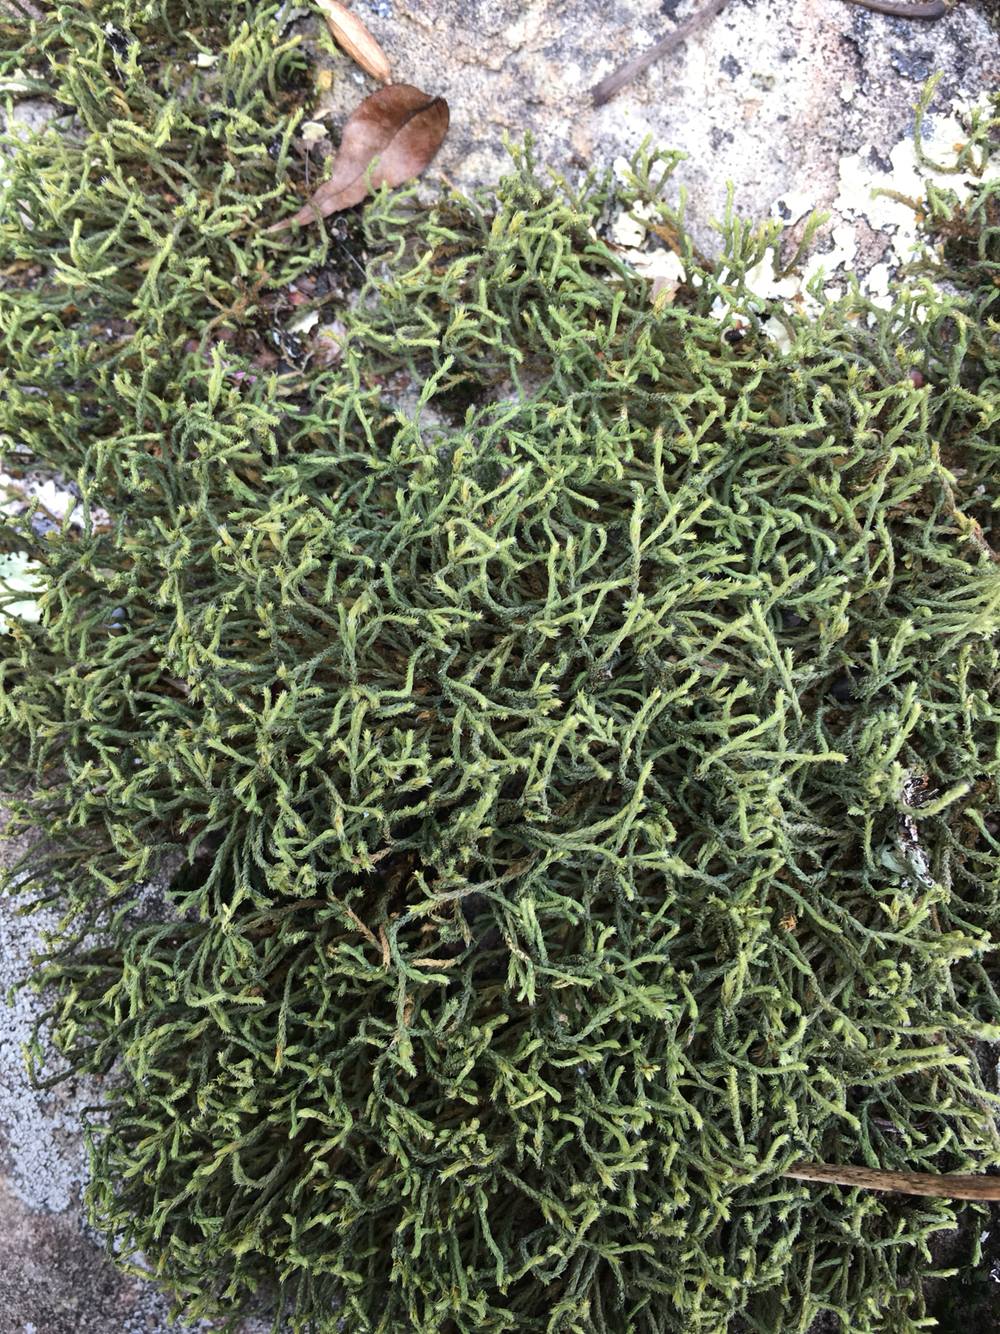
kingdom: Plantae
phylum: Bryophyta
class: Bryopsida
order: Hedwigiales
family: Hedwigiaceae
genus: Hedwigia
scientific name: Hedwigia ciliata
